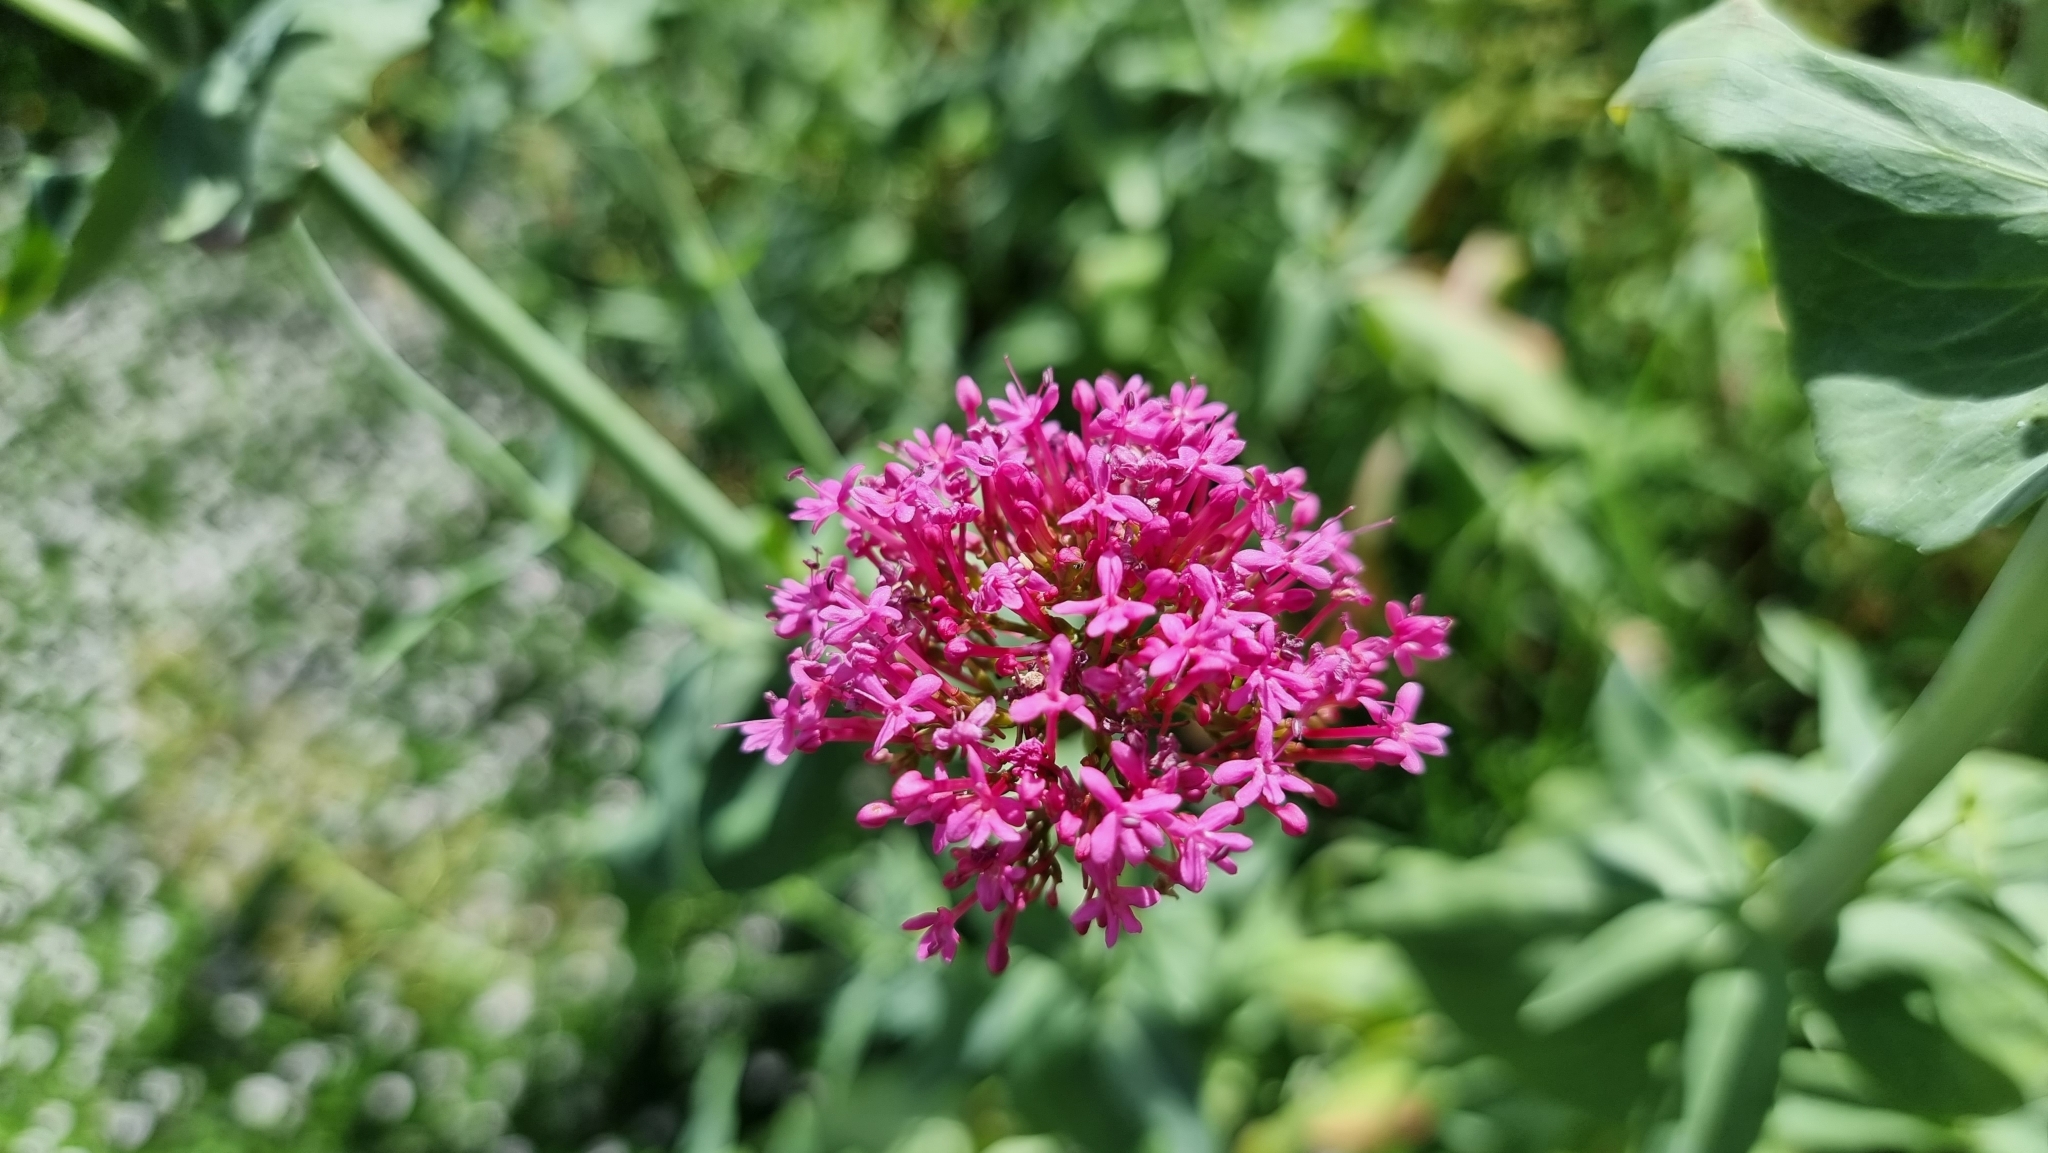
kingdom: Plantae
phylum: Tracheophyta
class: Magnoliopsida
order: Dipsacales
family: Caprifoliaceae
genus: Centranthus
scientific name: Centranthus ruber
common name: Red valerian
